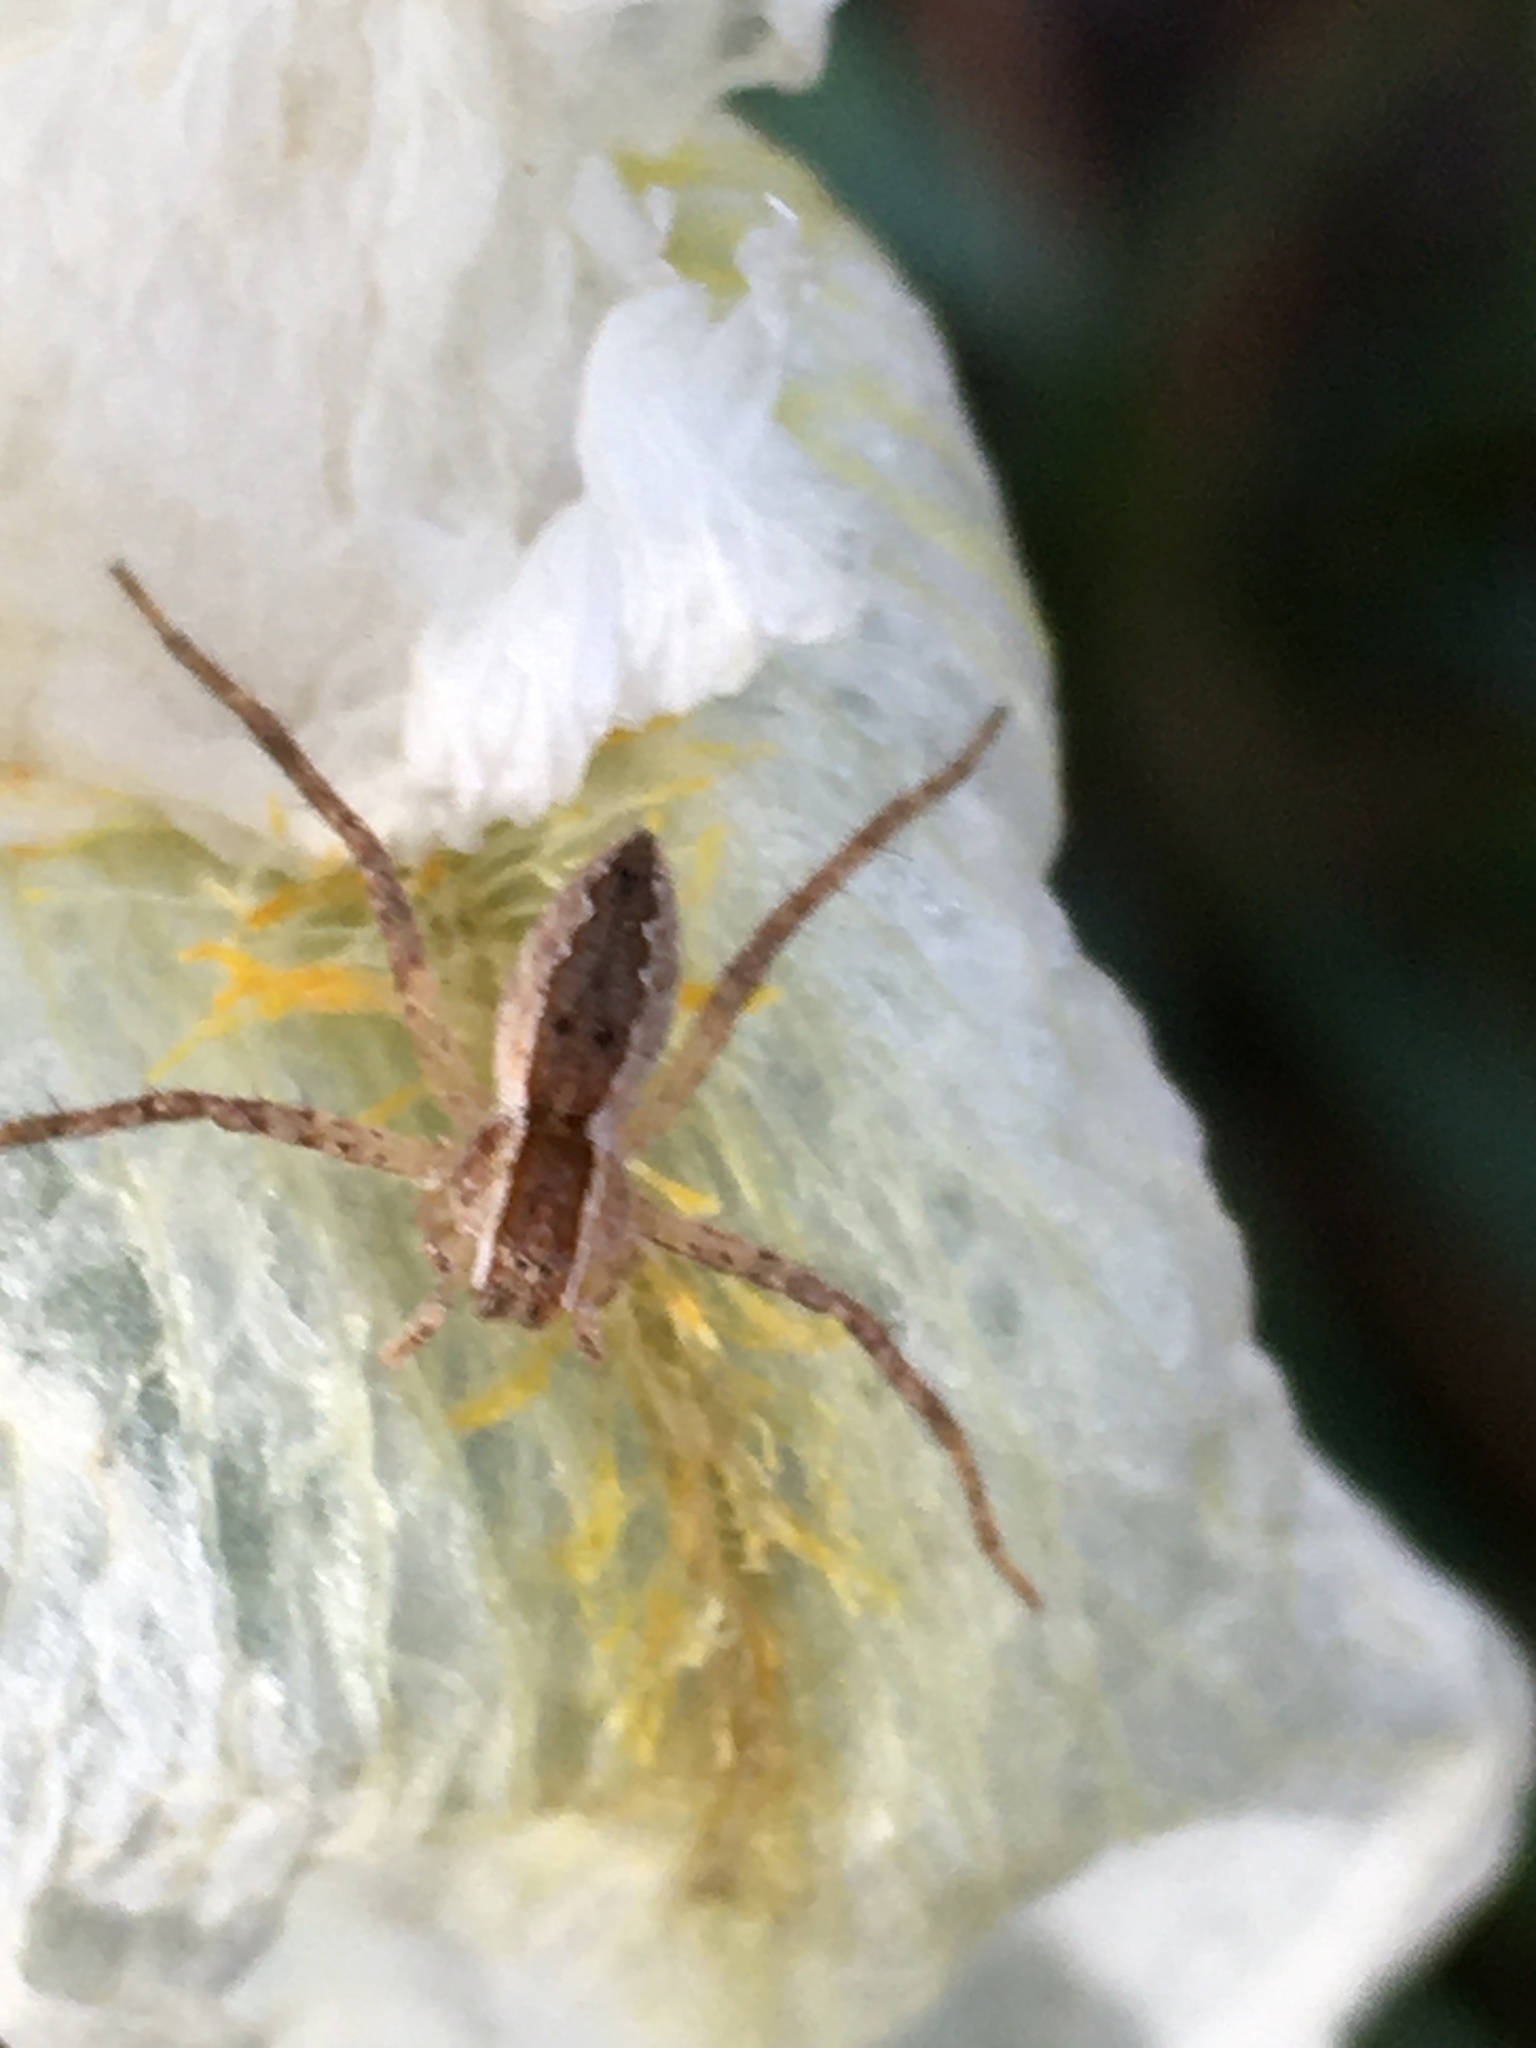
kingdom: Animalia
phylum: Arthropoda
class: Arachnida
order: Araneae
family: Pisauridae
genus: Pisaurina
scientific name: Pisaurina mira
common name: American nursery web spider
